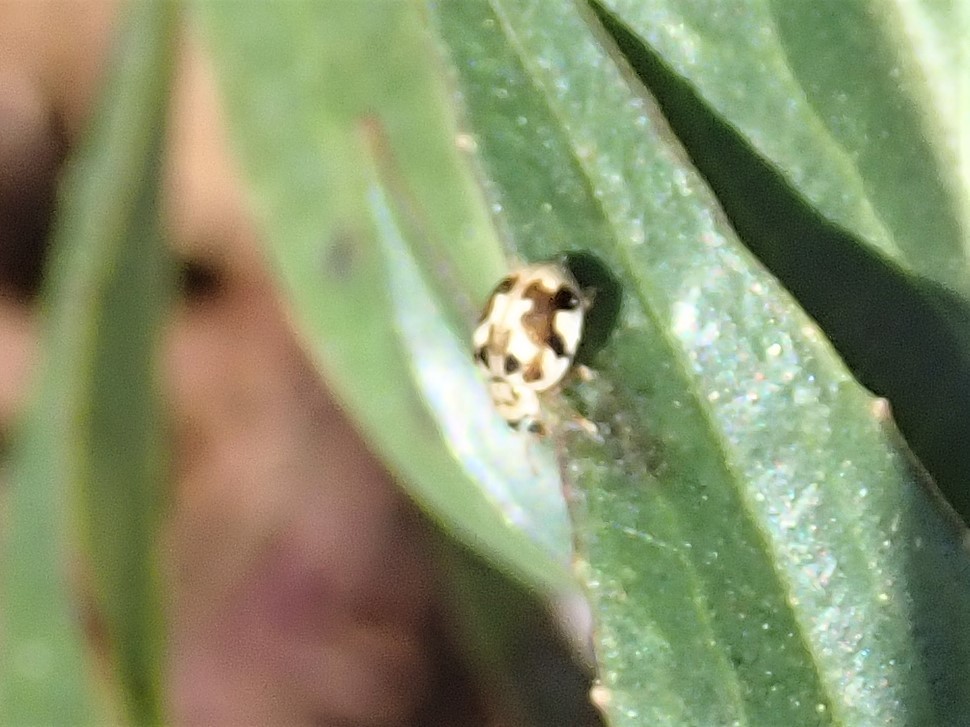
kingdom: Animalia
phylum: Arthropoda
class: Insecta
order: Coleoptera
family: Coccinellidae
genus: Psyllobora
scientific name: Psyllobora vigintimaculata
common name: Ladybird beetle
